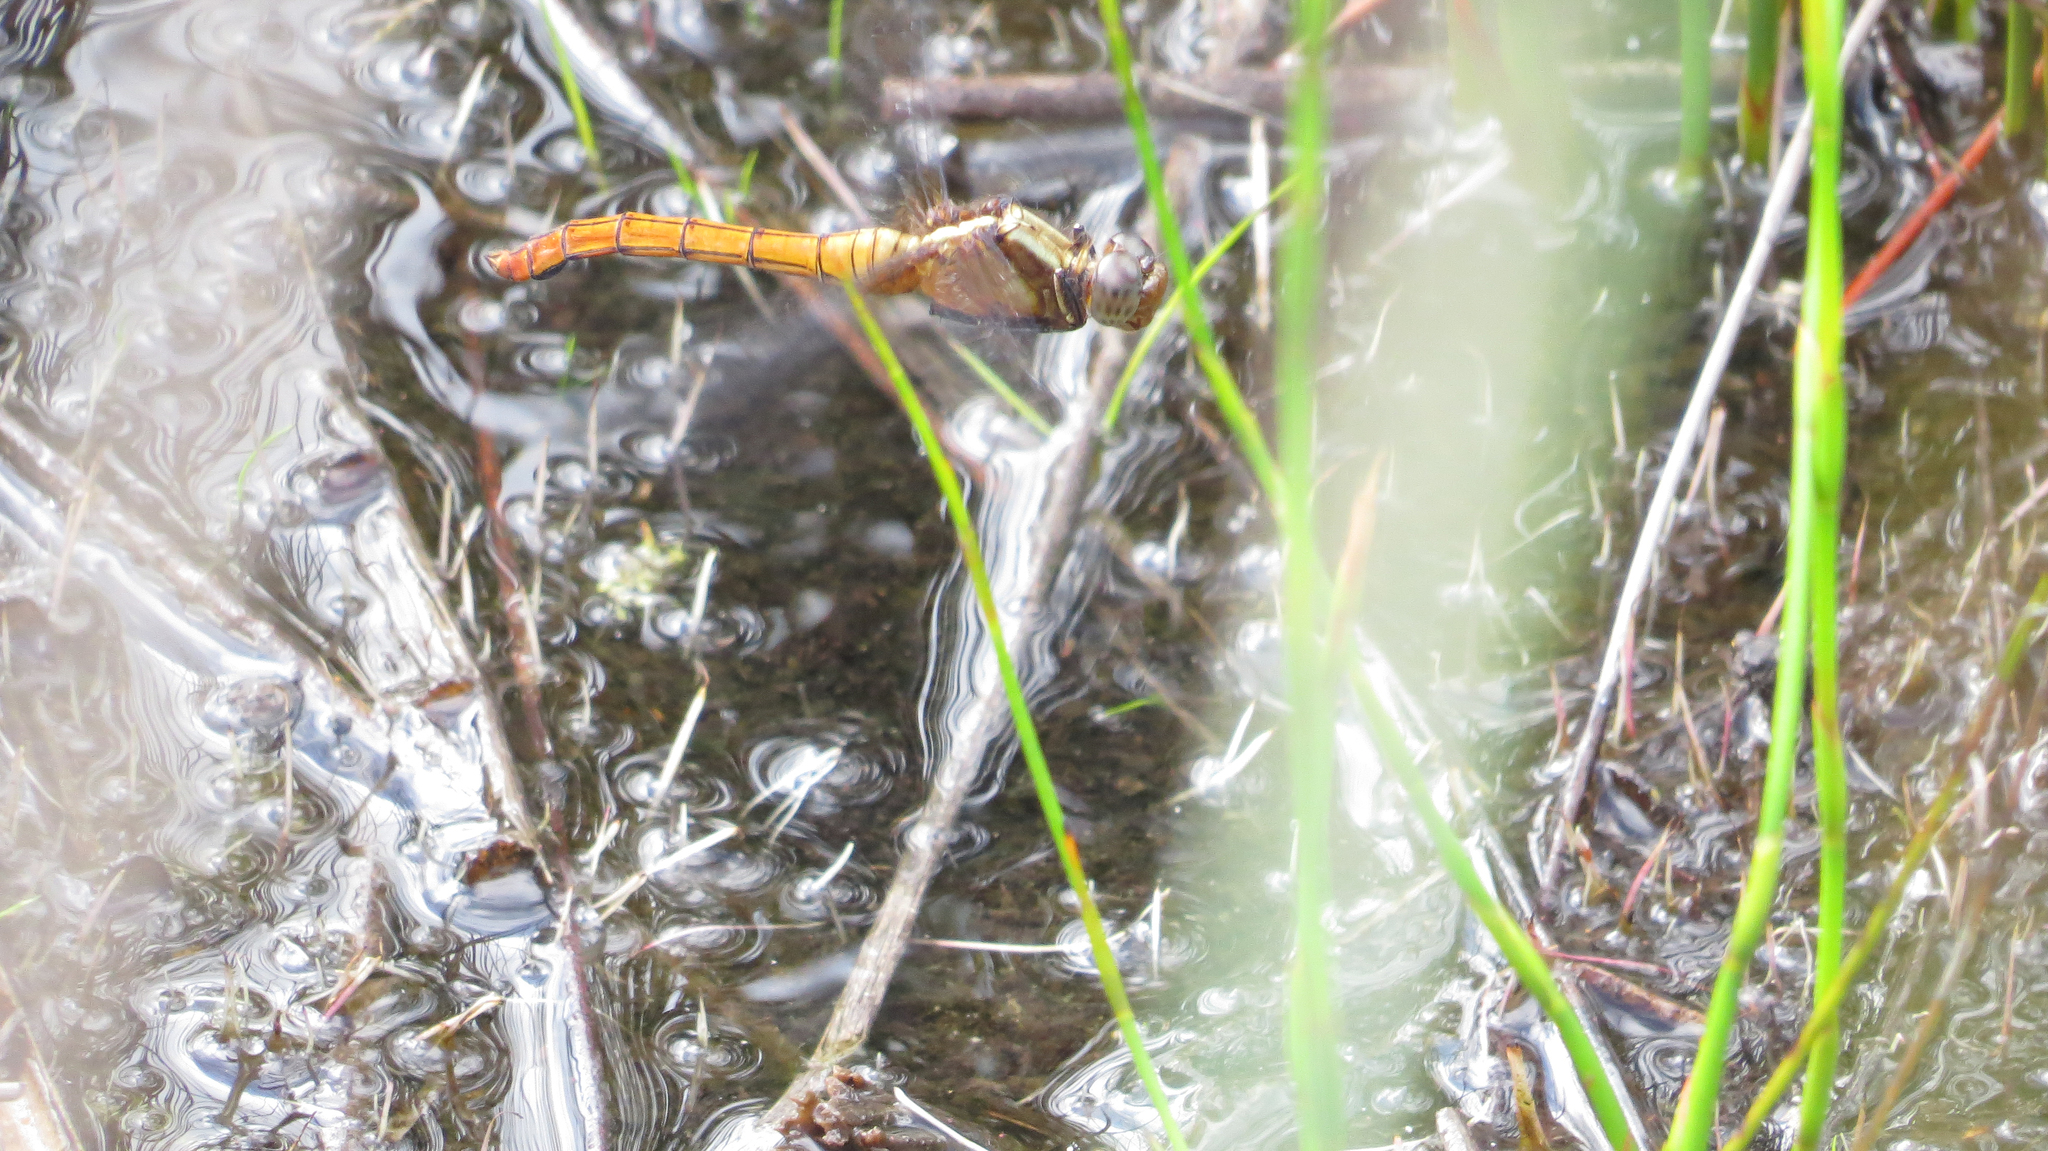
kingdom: Animalia
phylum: Arthropoda
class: Insecta
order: Odonata
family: Libellulidae
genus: Orthetrum
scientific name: Orthetrum villosovittatum
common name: Firery skimmer
